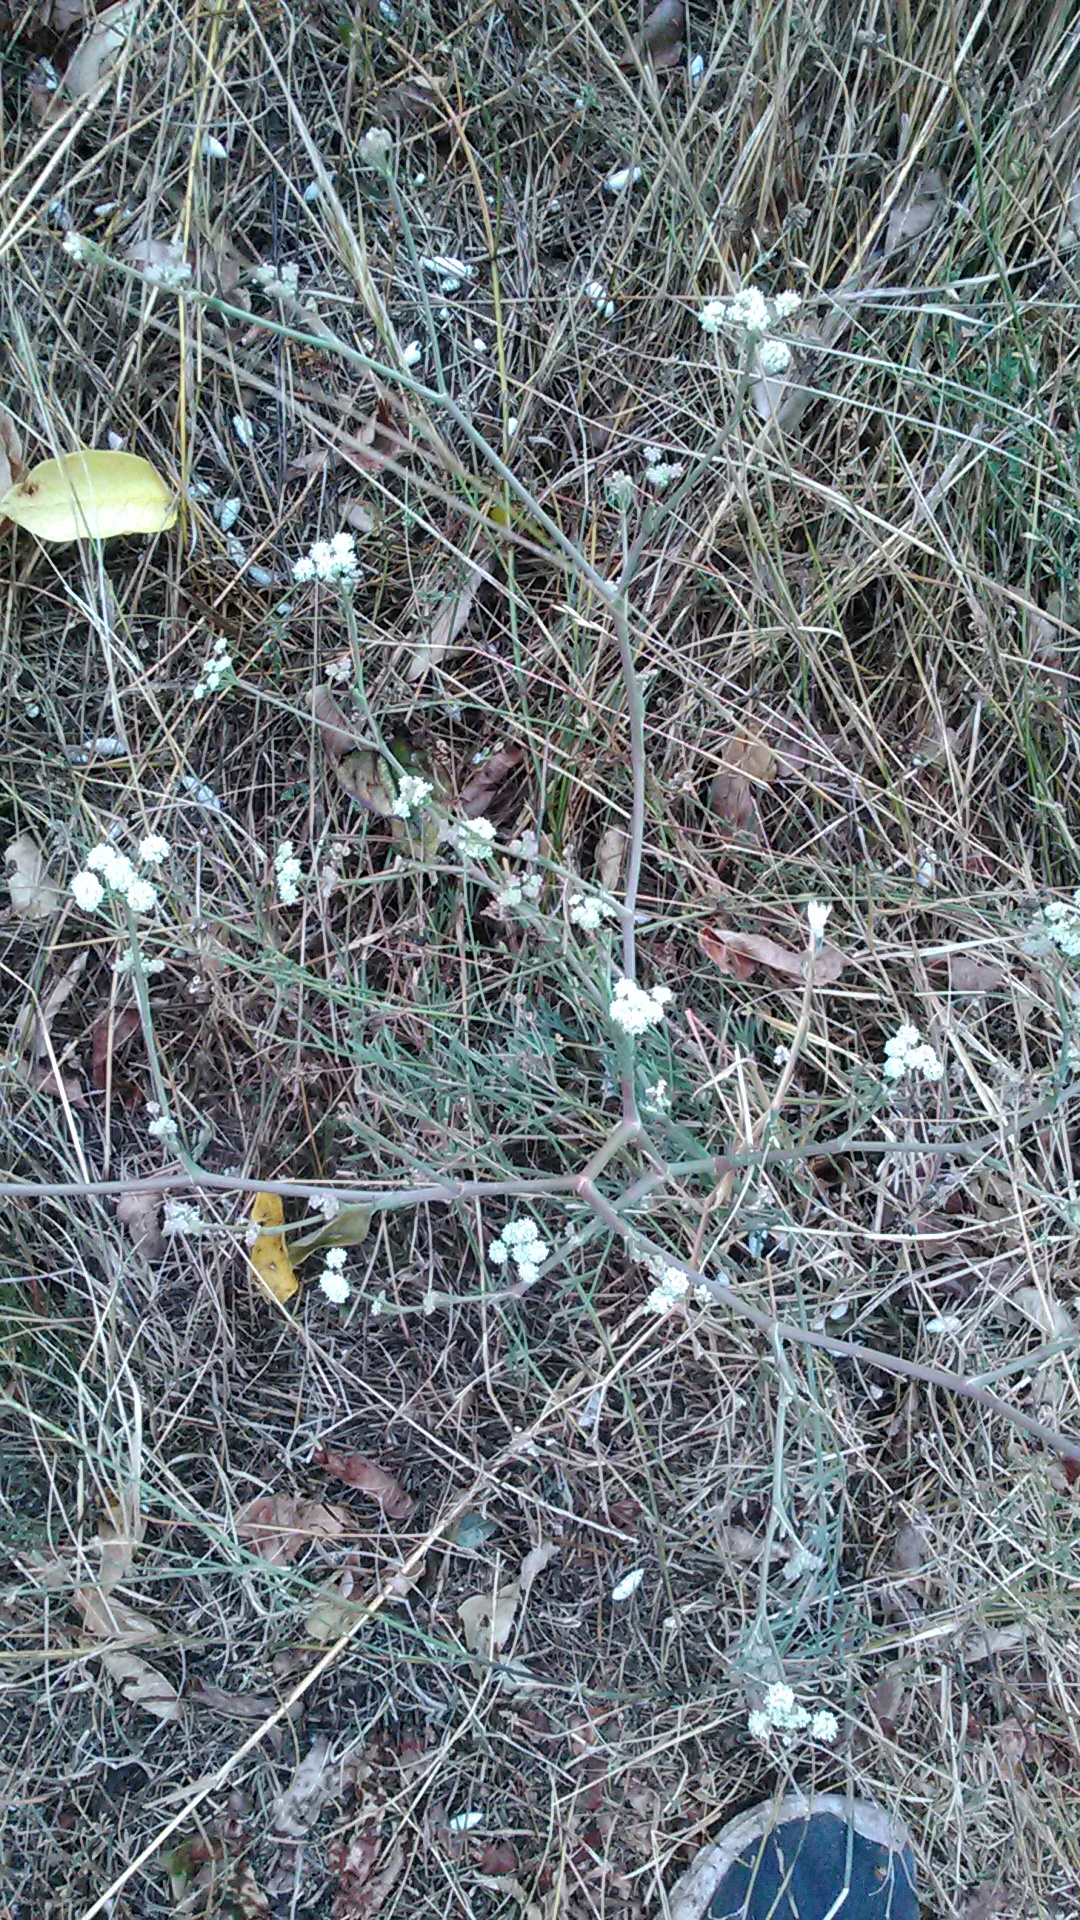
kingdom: Plantae
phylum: Tracheophyta
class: Magnoliopsida
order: Apiales
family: Apiaceae
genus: Seseli
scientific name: Seseli dichotomum
